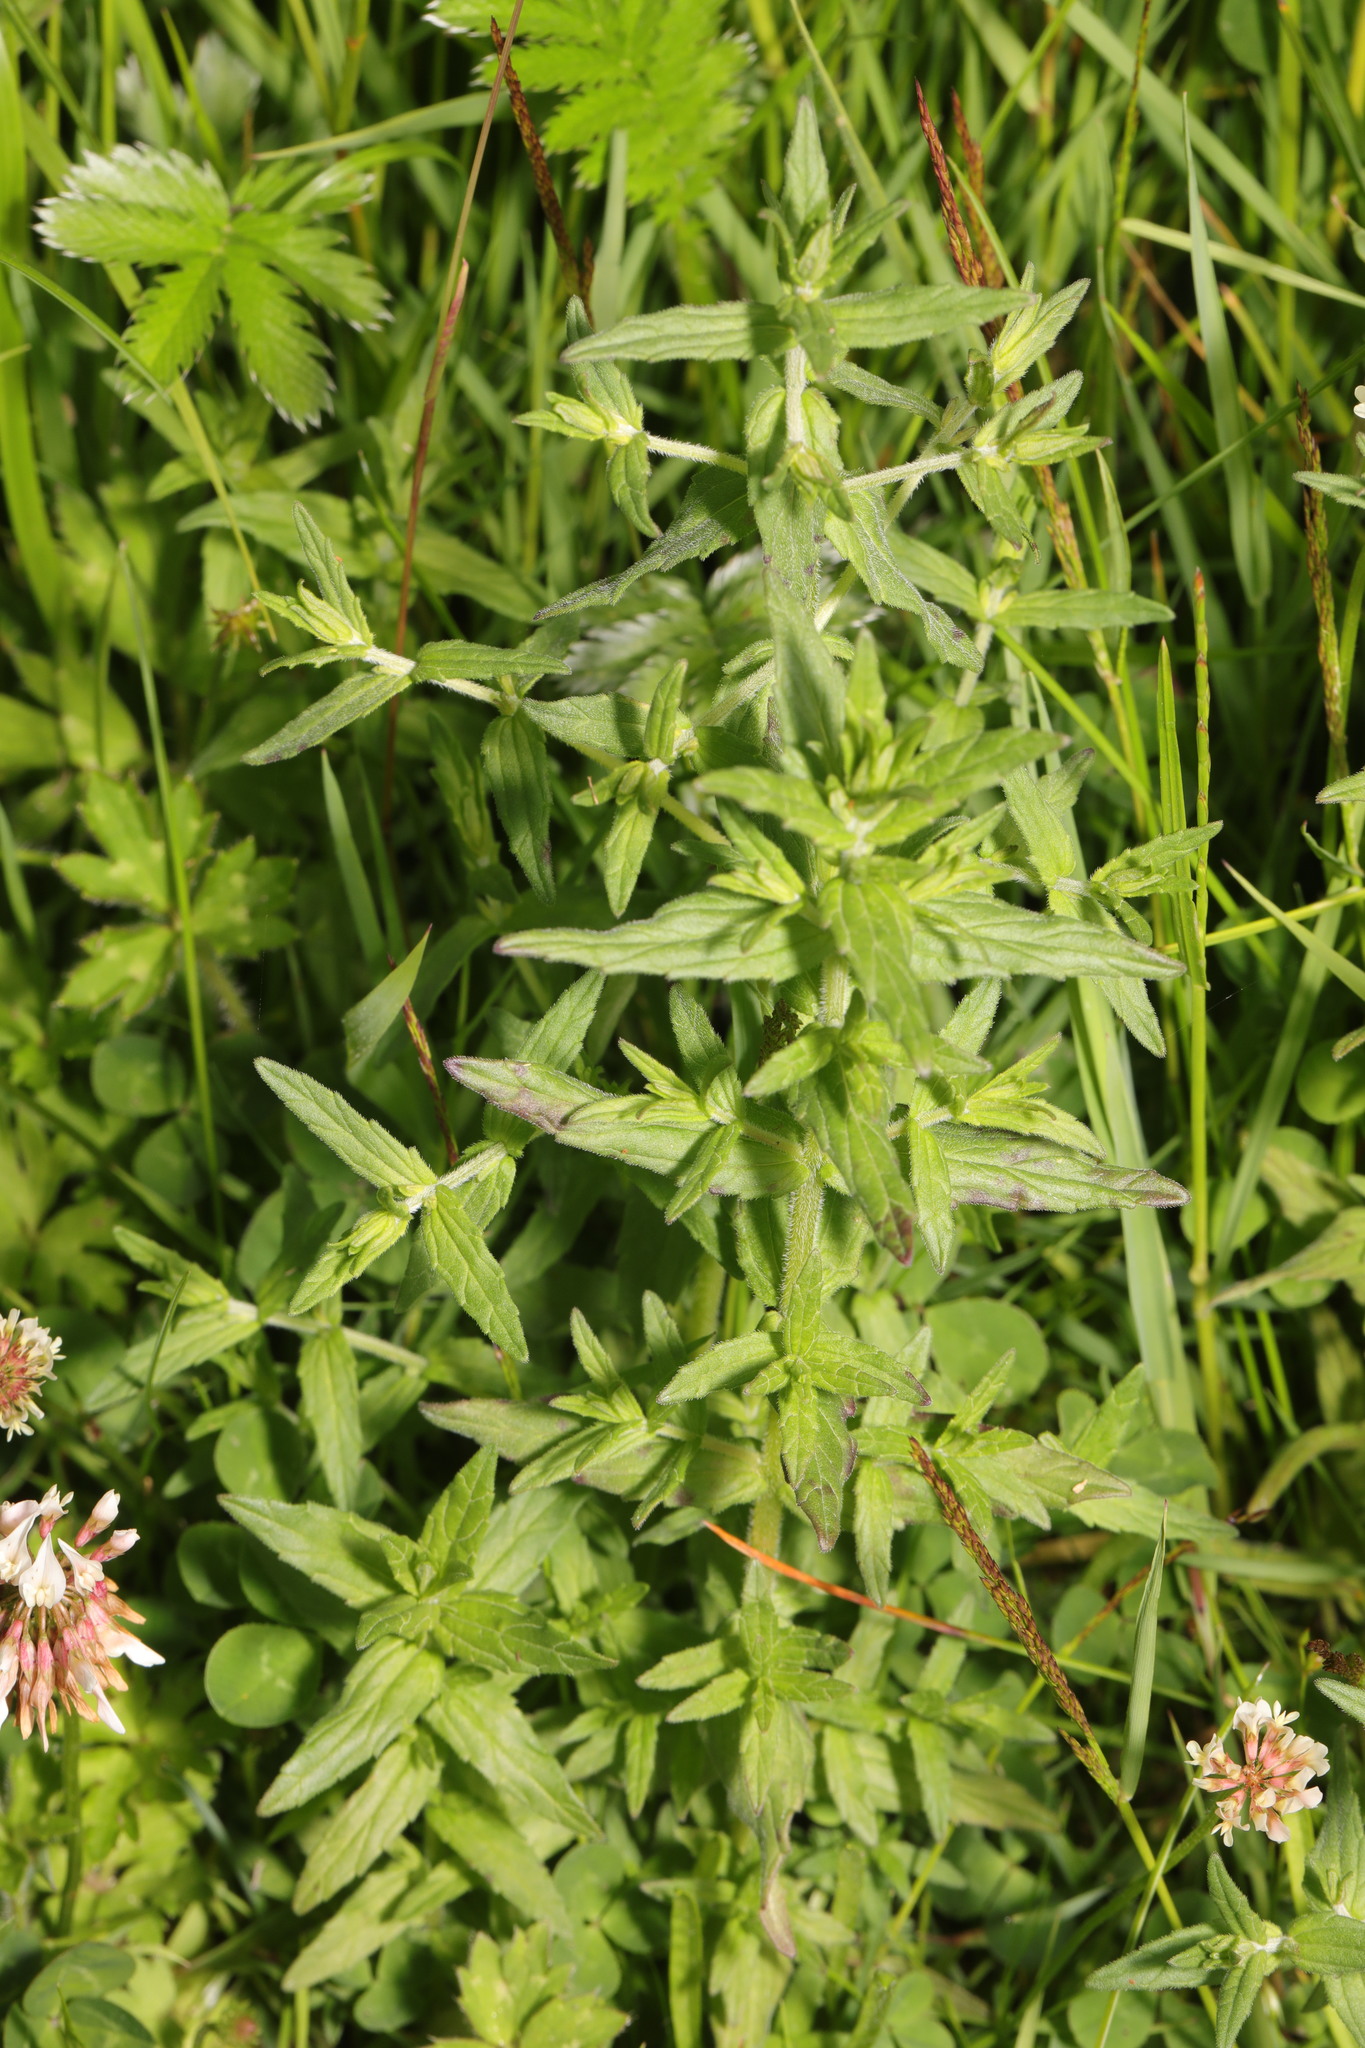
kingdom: Plantae
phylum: Tracheophyta
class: Magnoliopsida
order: Lamiales
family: Orobanchaceae
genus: Odontites
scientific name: Odontites vulgaris
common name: Broomrape
